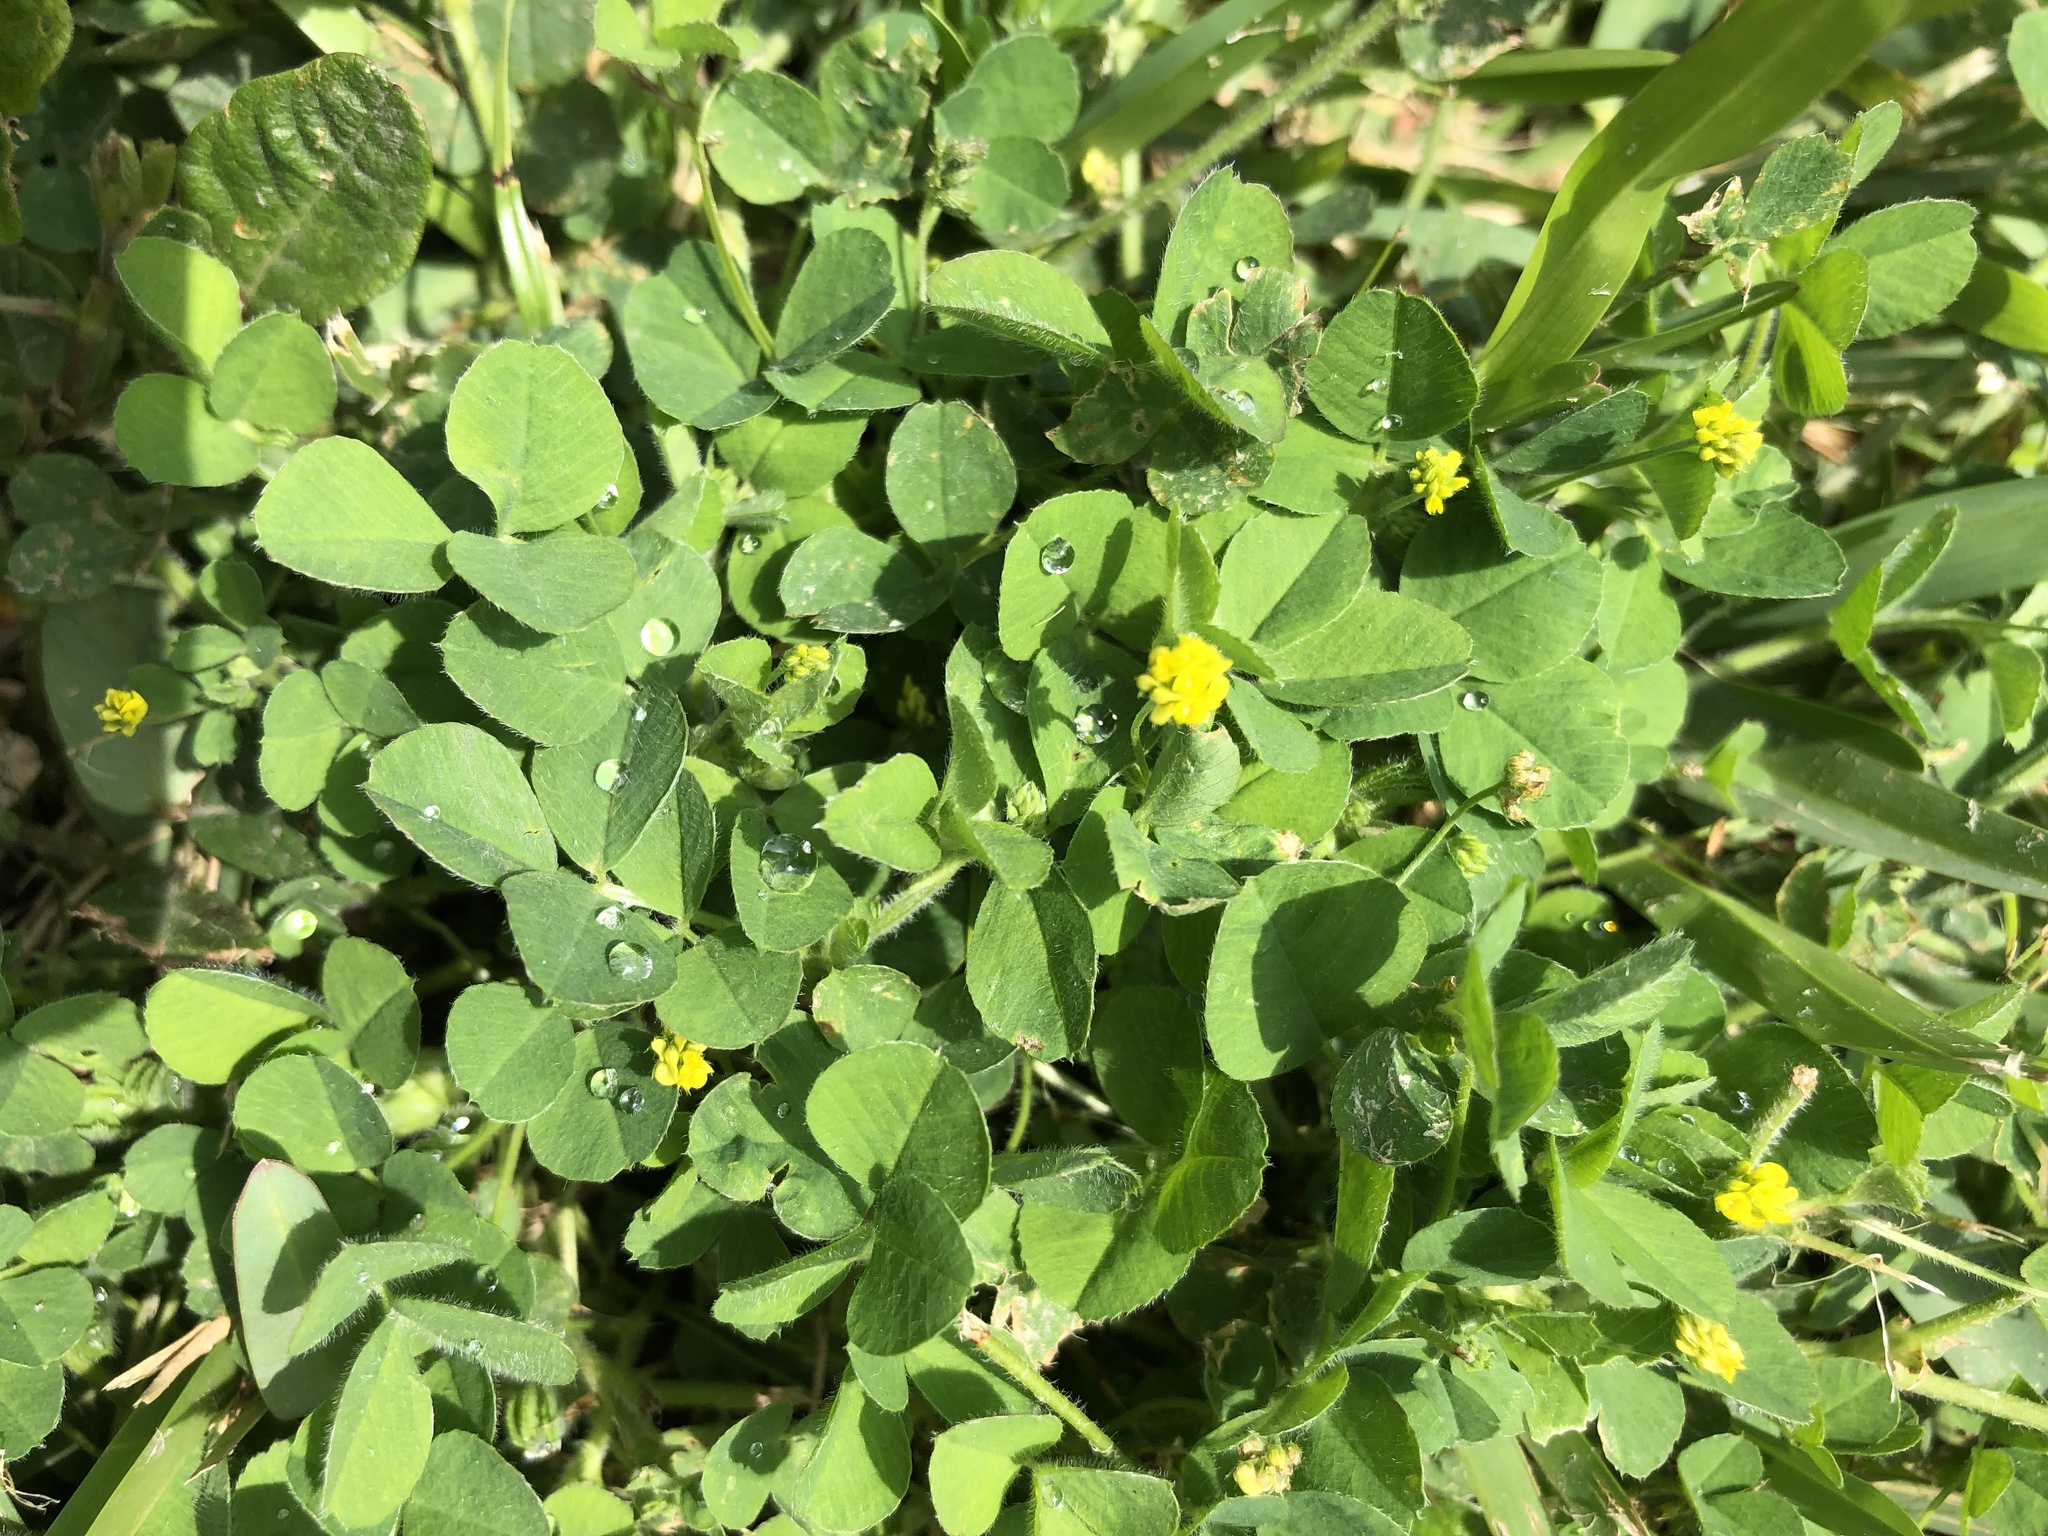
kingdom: Plantae
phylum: Tracheophyta
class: Magnoliopsida
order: Fabales
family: Fabaceae
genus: Medicago
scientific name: Medicago lupulina
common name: Black medick
